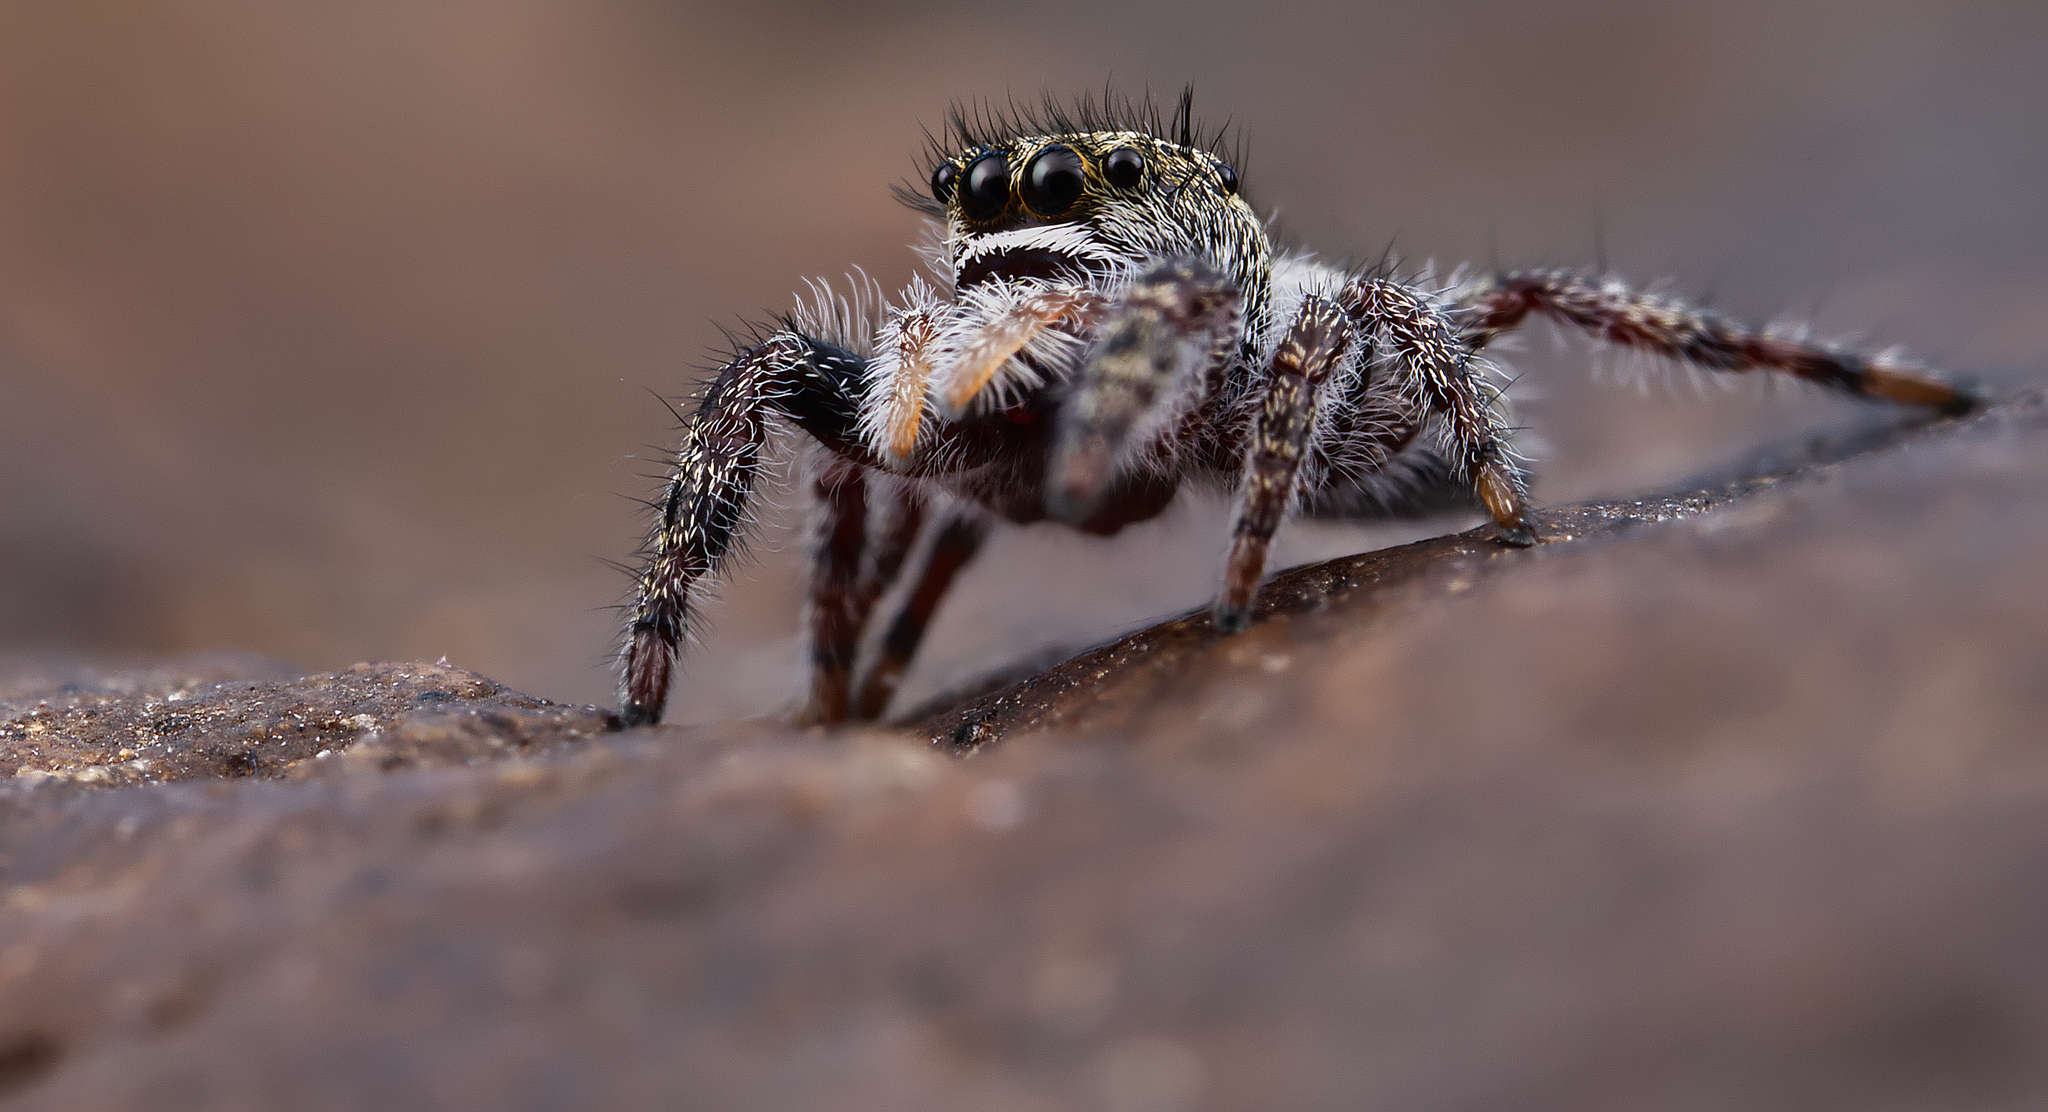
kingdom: Animalia
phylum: Arthropoda
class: Arachnida
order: Araneae
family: Salticidae
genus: Phidippus
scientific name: Phidippus purpuratus
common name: Marbled purple jumping spider
